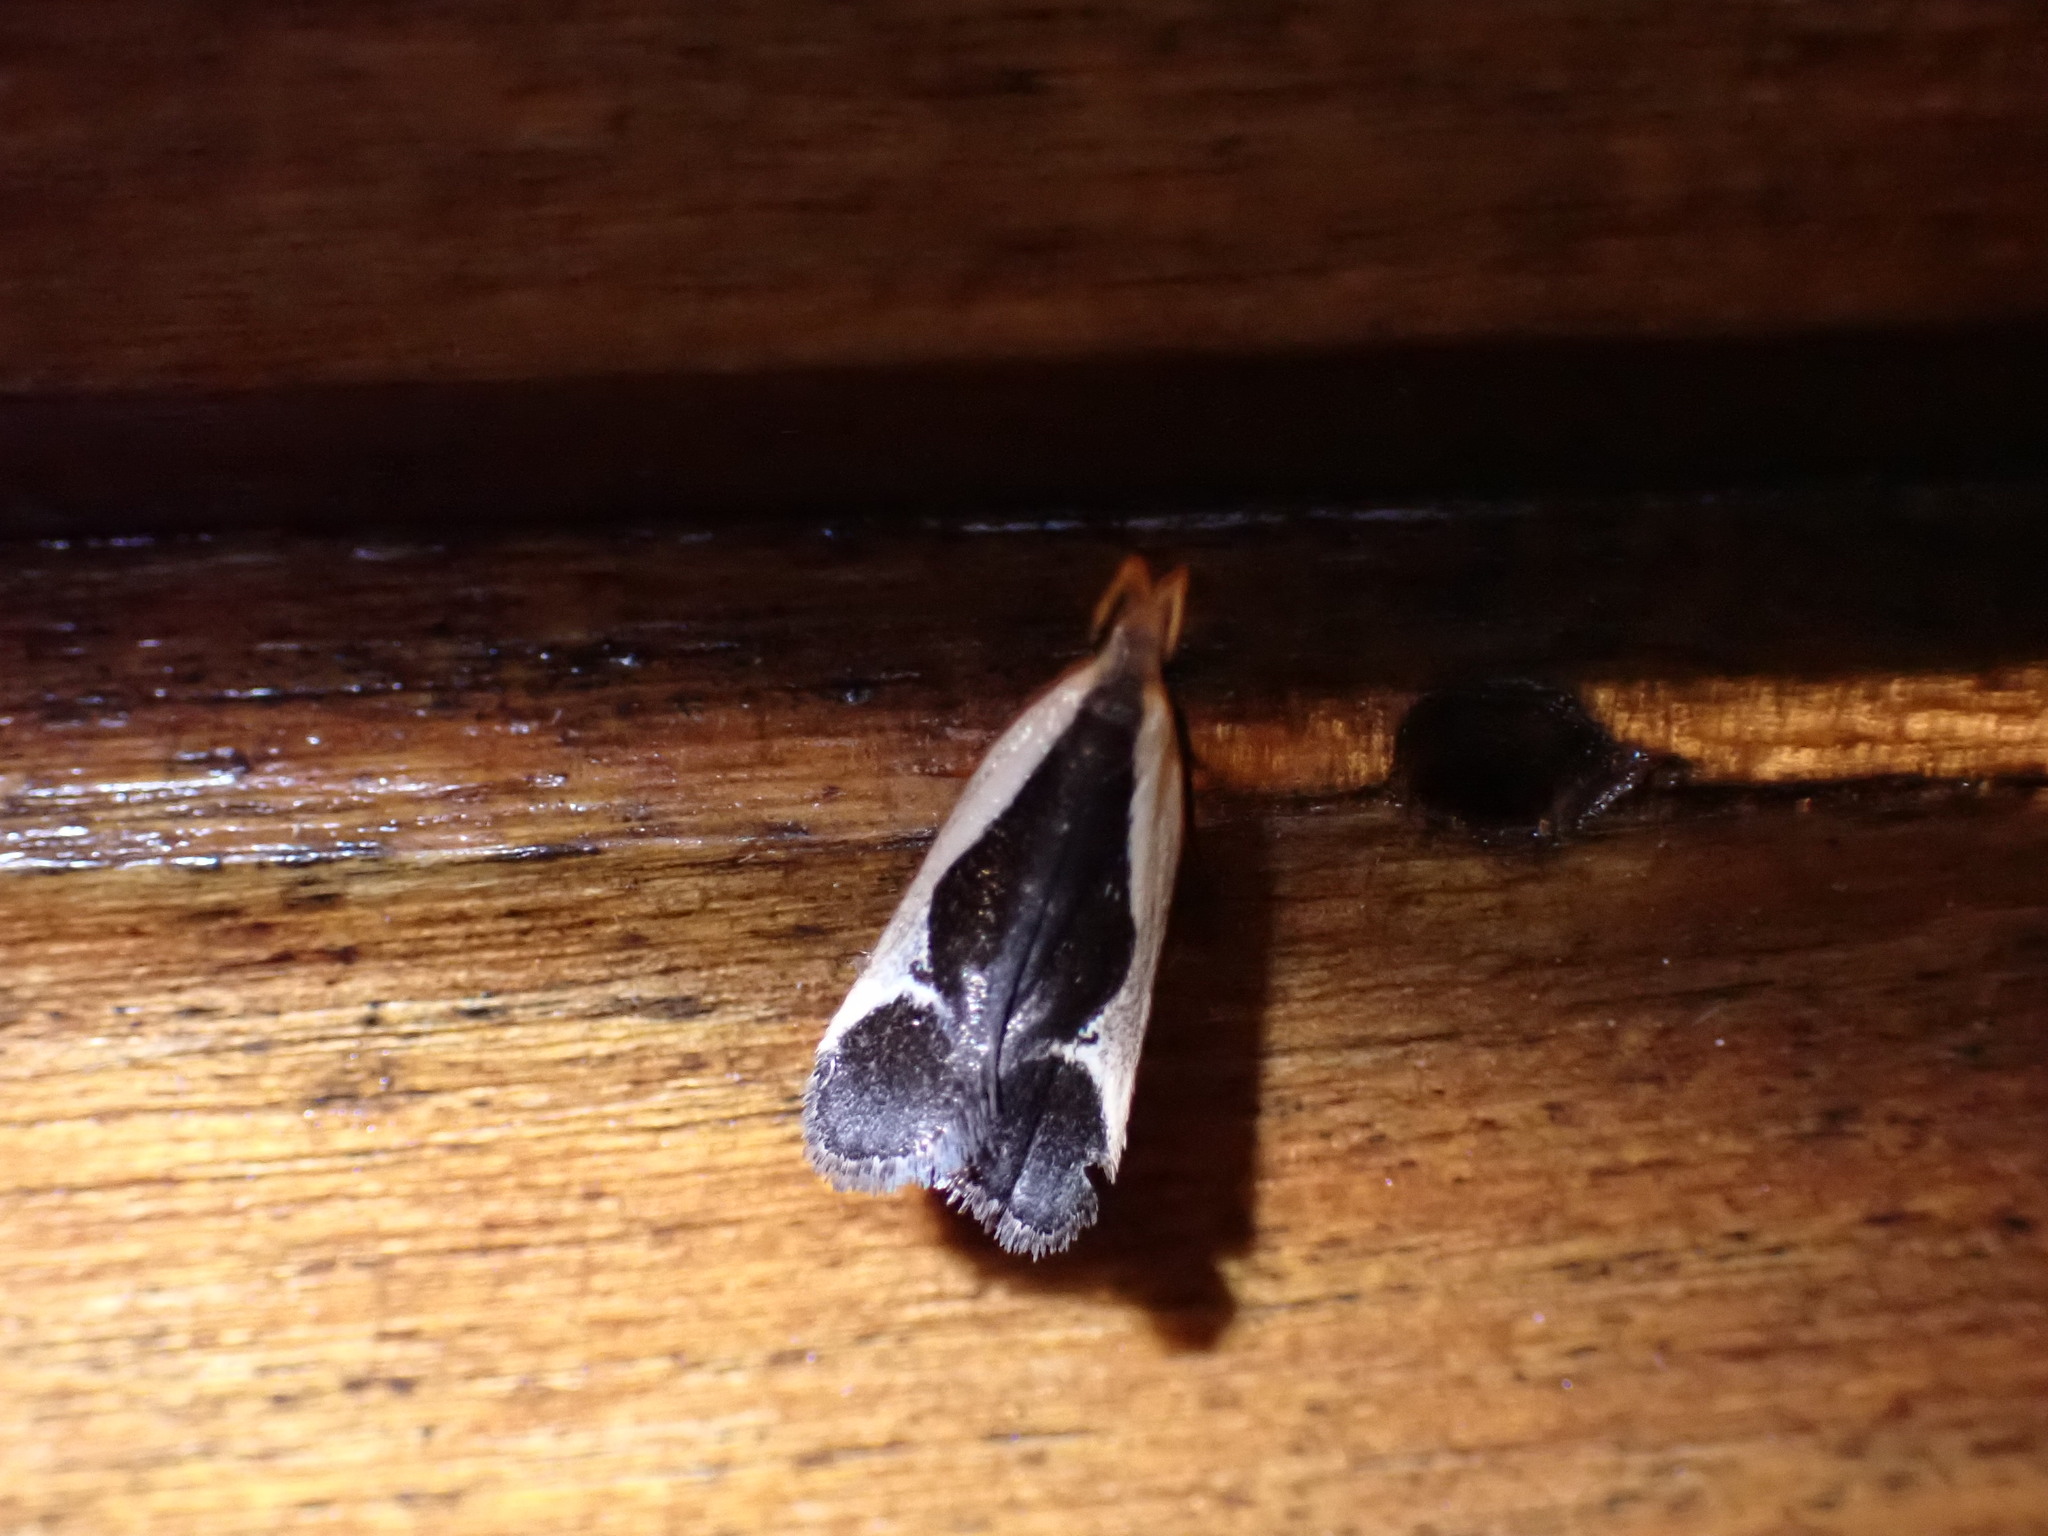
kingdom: Animalia
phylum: Arthropoda
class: Insecta
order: Lepidoptera
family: Gelechiidae
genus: Dichomeris
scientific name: Dichomeris flavocostella
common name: Cream-edged dichomeris moth
